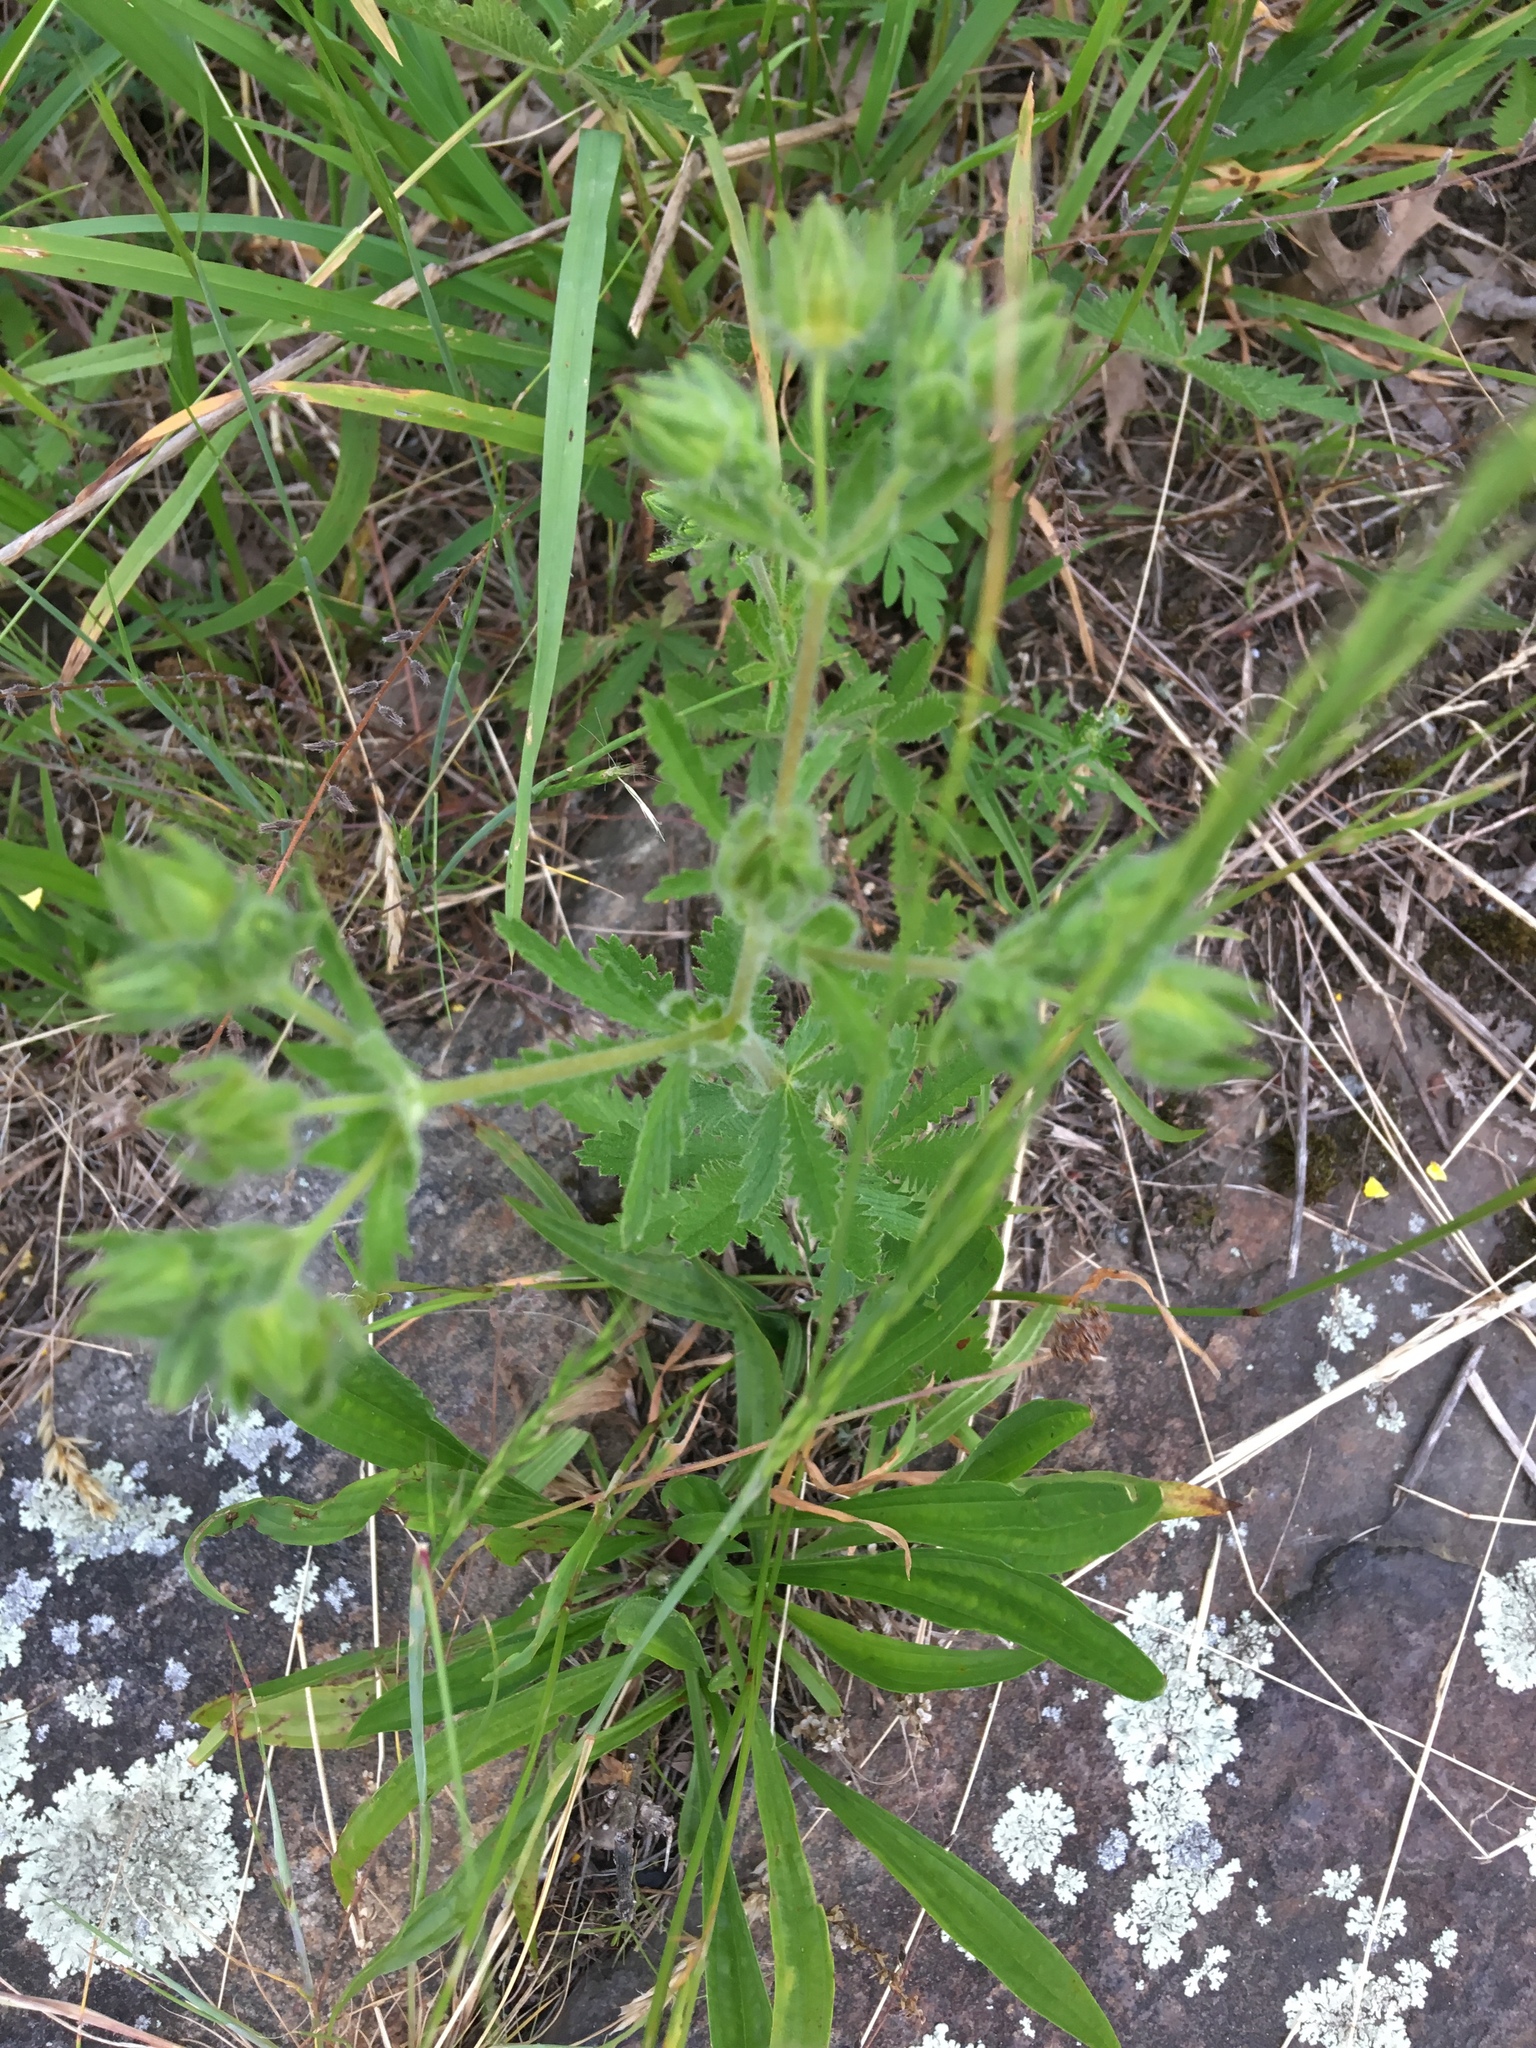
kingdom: Plantae
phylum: Tracheophyta
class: Magnoliopsida
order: Rosales
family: Rosaceae
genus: Potentilla
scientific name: Potentilla recta
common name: Sulphur cinquefoil
